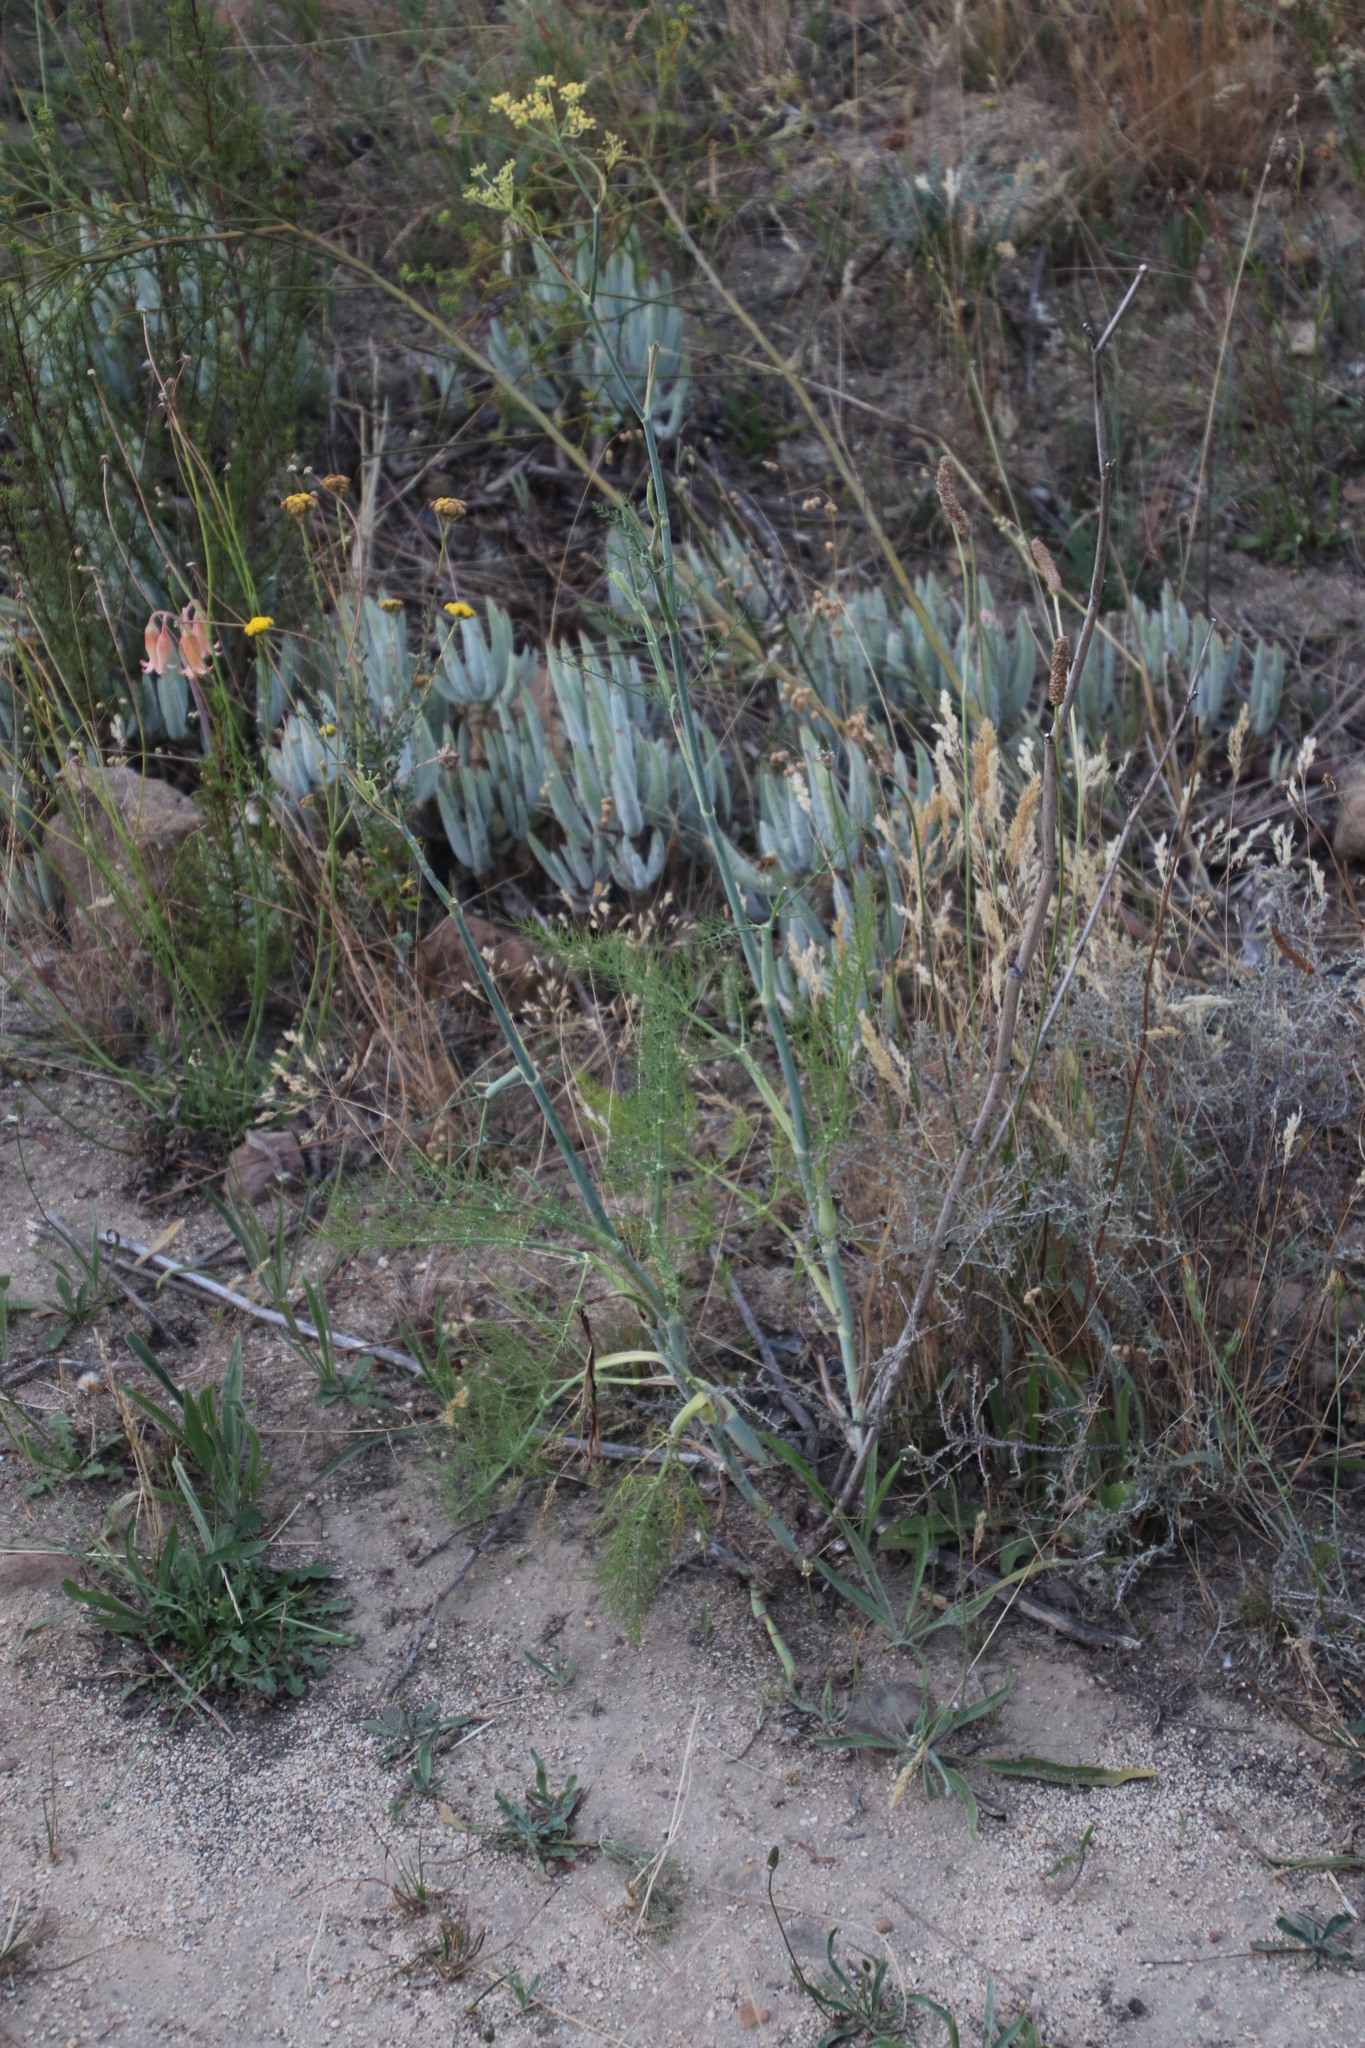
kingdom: Plantae
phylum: Tracheophyta
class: Magnoliopsida
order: Apiales
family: Apiaceae
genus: Foeniculum
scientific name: Foeniculum vulgare
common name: Fennel
